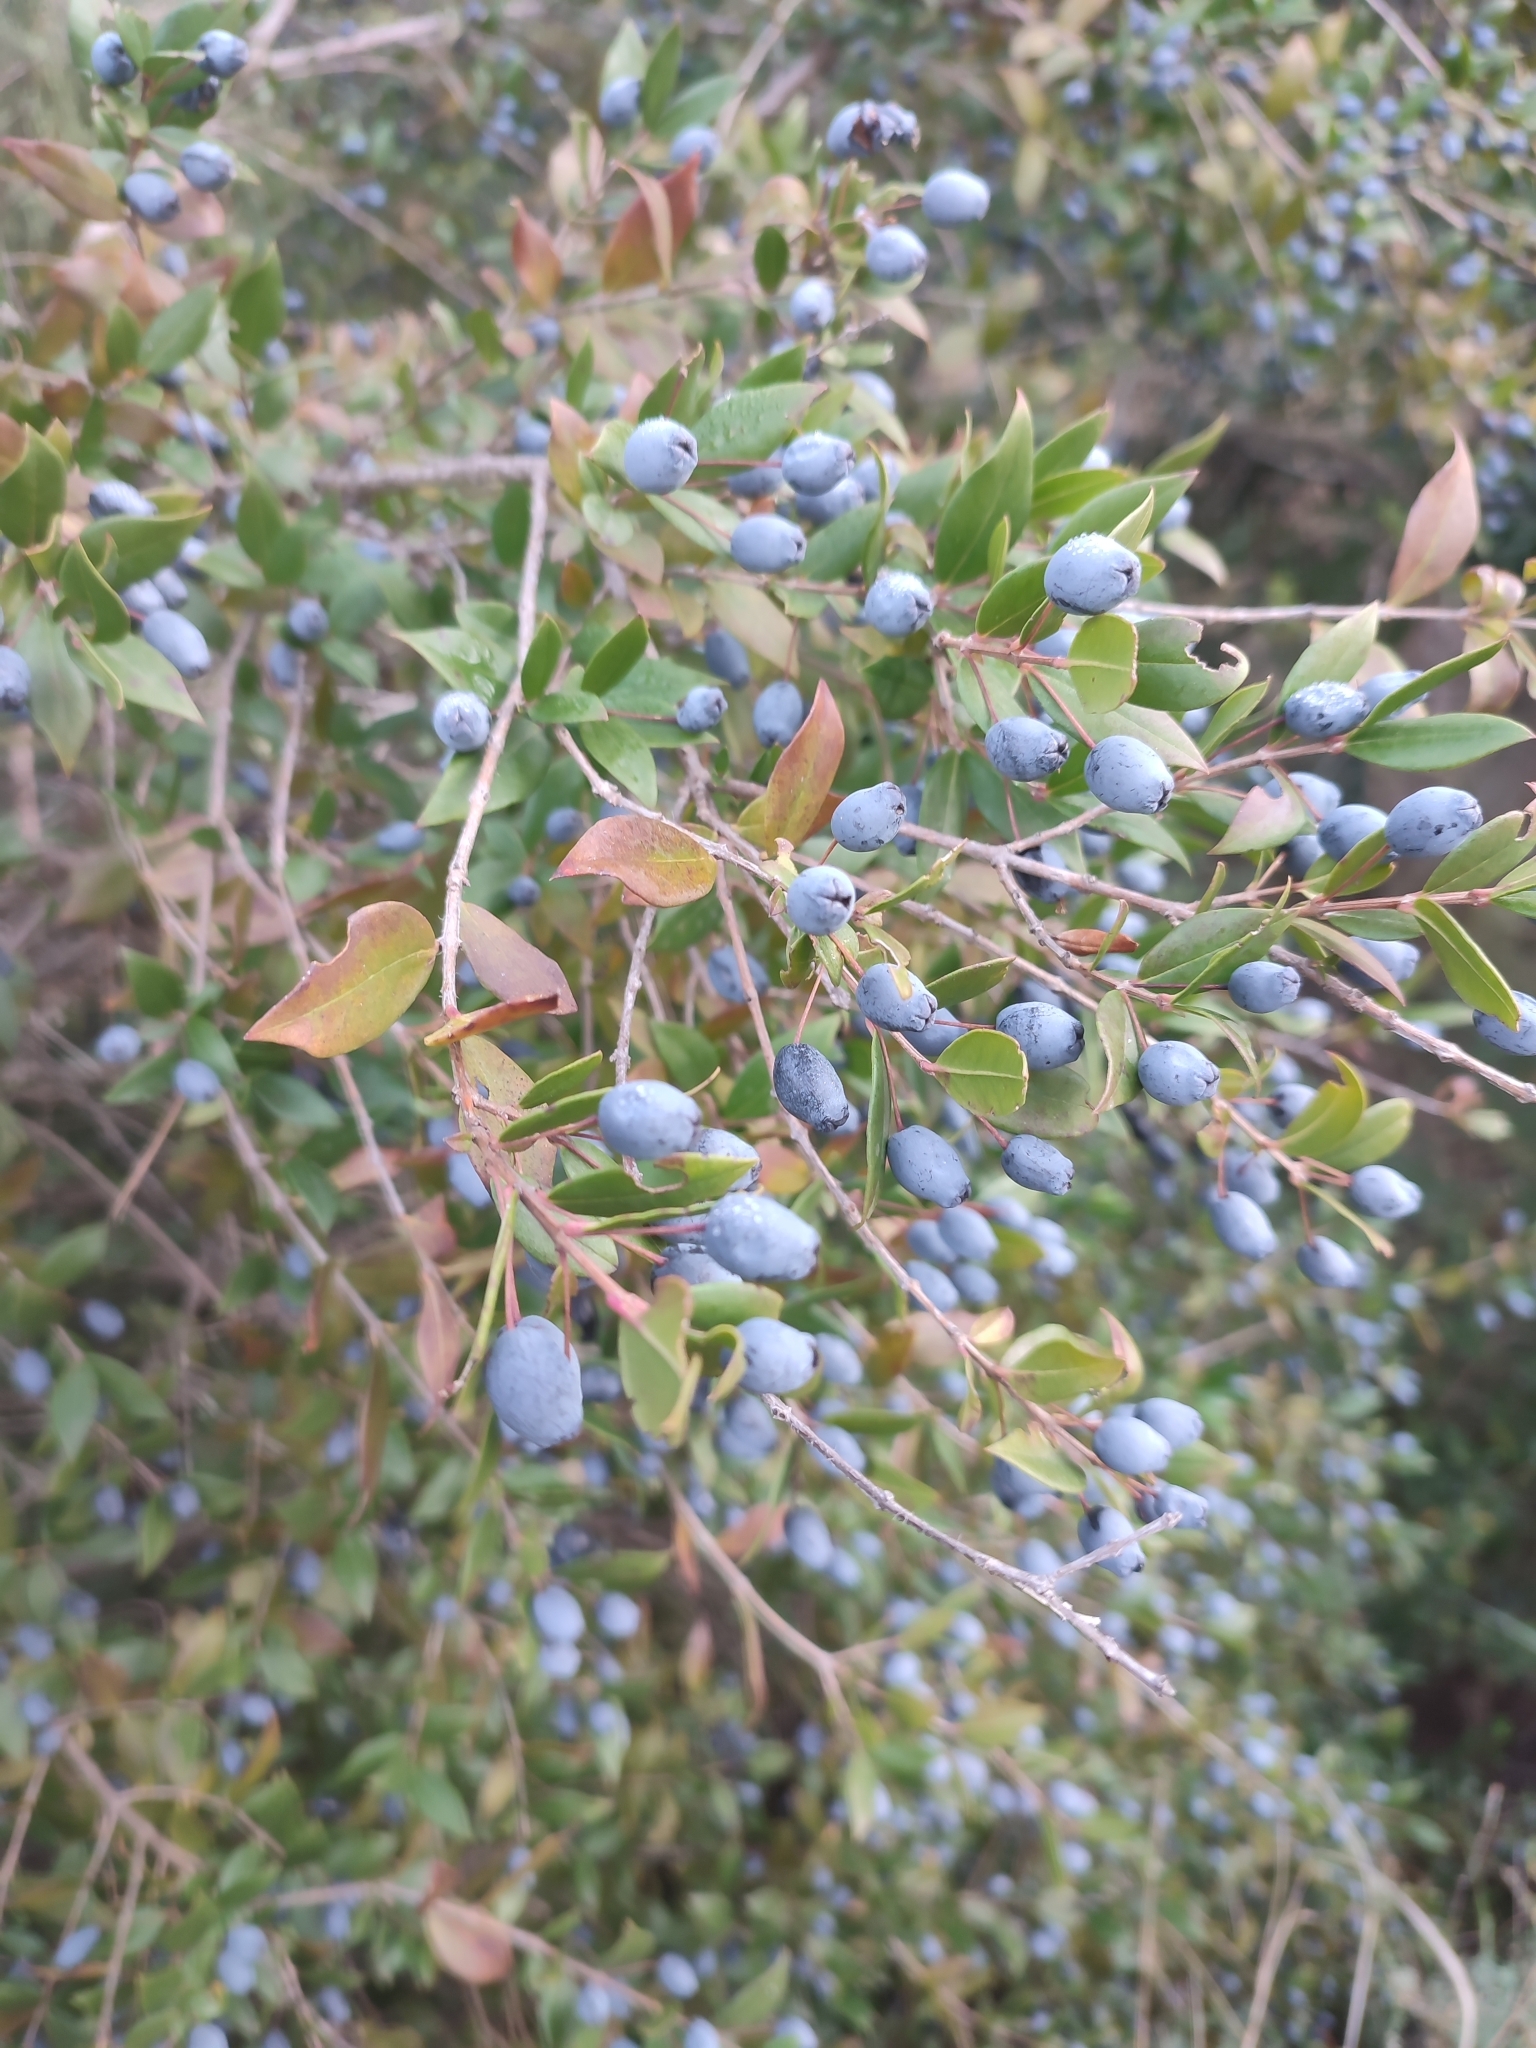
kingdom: Plantae
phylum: Tracheophyta
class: Magnoliopsida
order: Myrtales
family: Myrtaceae
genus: Myrtus
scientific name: Myrtus communis
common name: Myrtle
